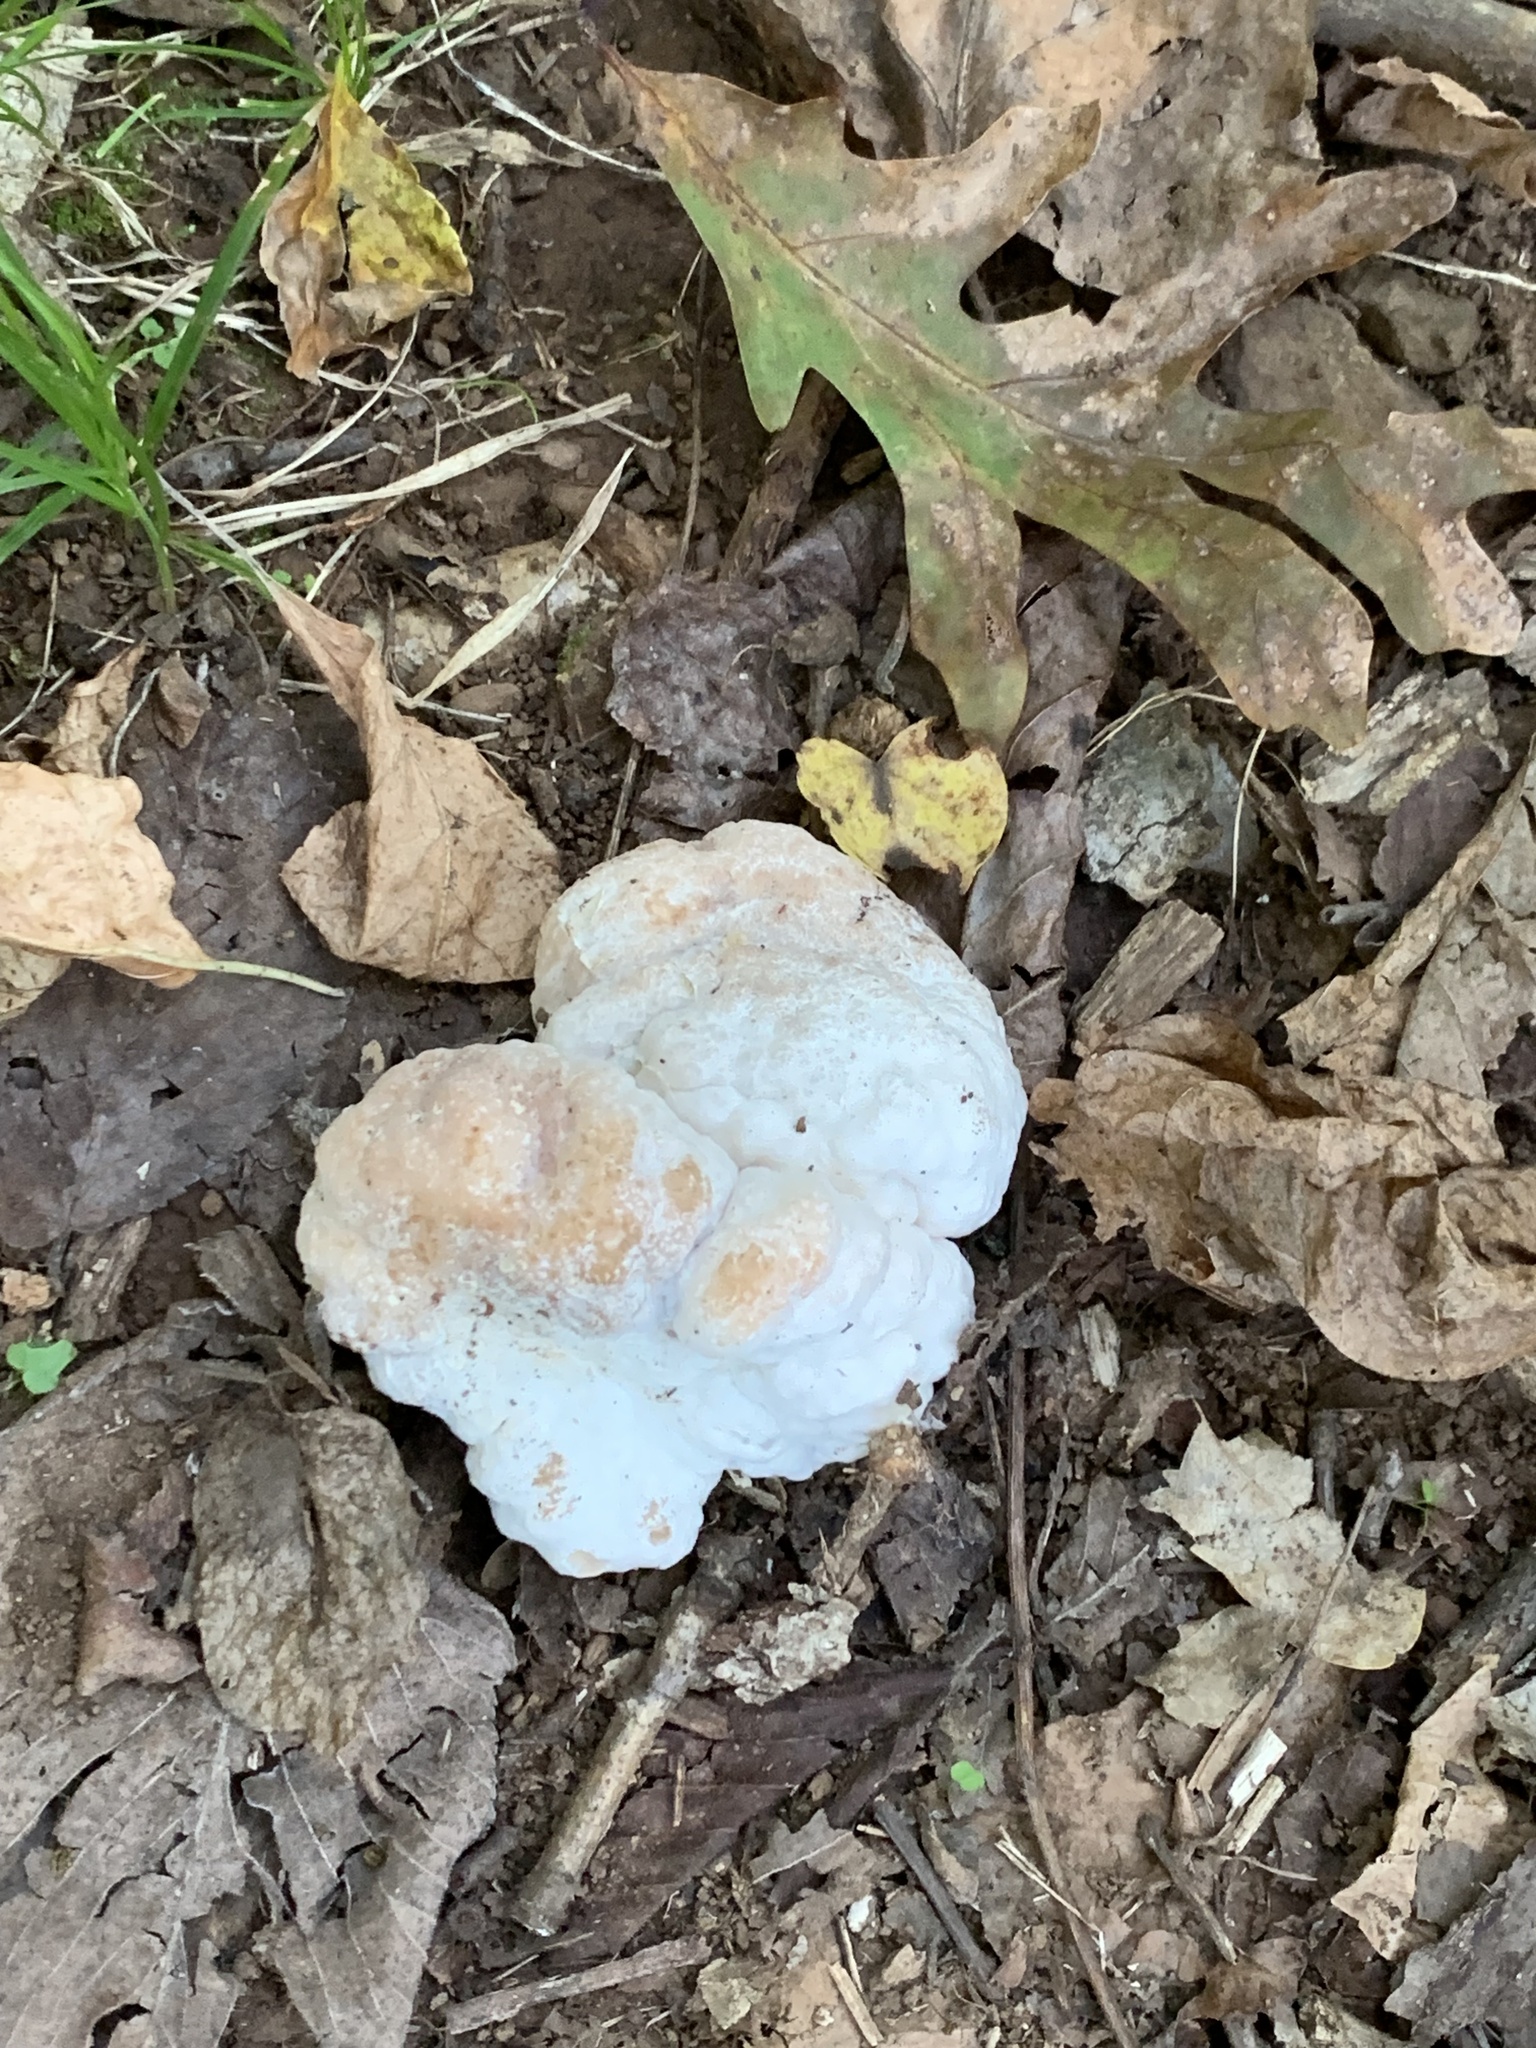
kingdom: Fungi
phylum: Basidiomycota
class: Agaricomycetes
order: Agaricales
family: Entolomataceae
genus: Entoloma
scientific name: Entoloma abortivum
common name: Aborted entoloma
